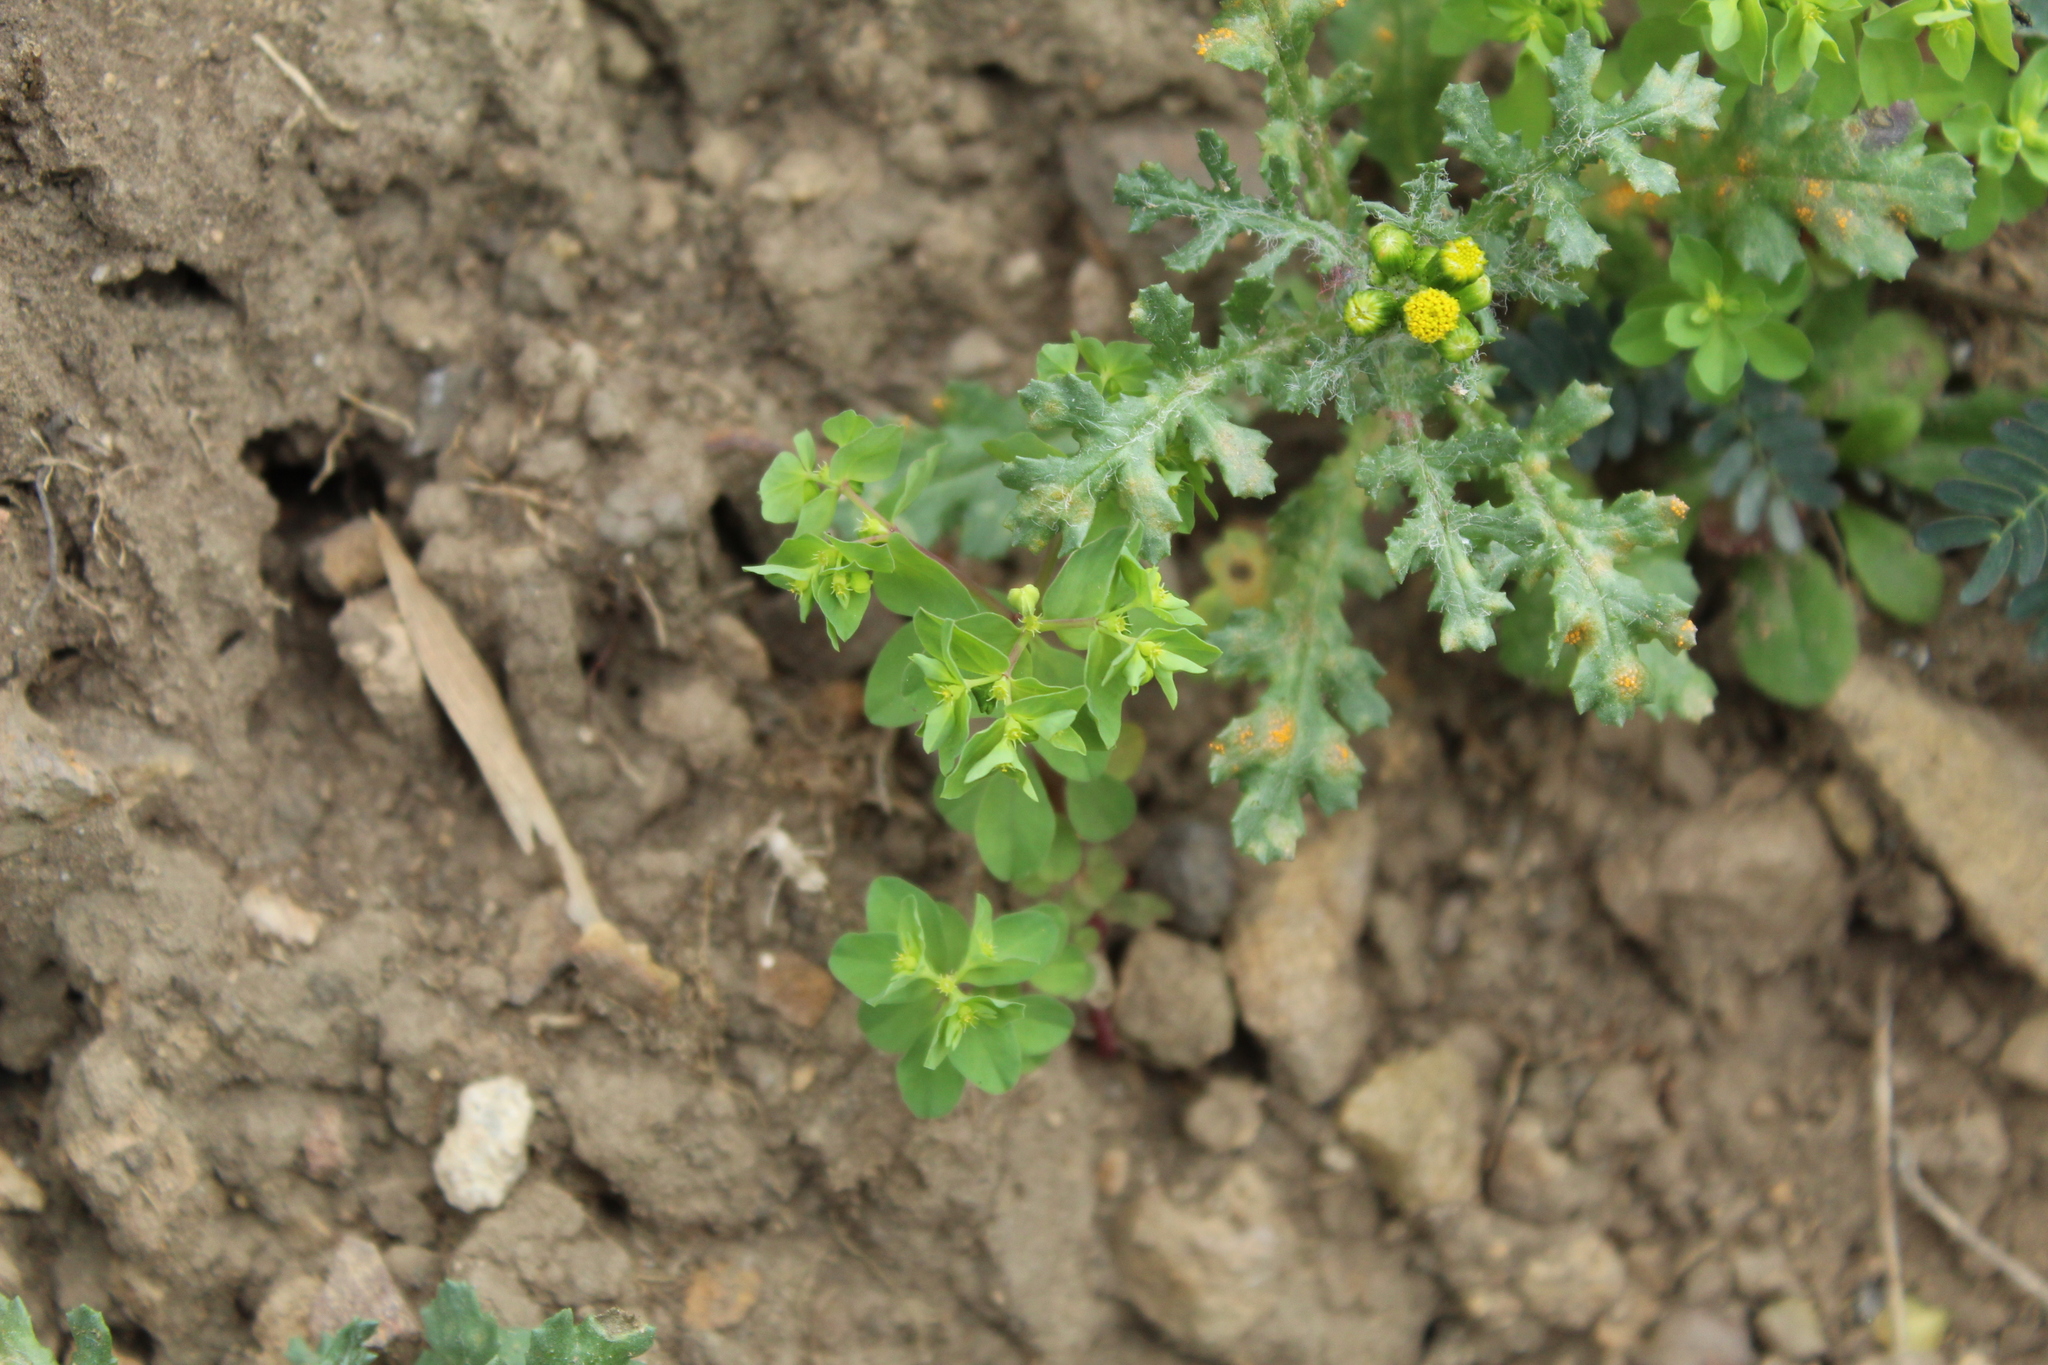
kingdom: Plantae
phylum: Tracheophyta
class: Magnoliopsida
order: Malpighiales
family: Euphorbiaceae
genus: Euphorbia
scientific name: Euphorbia peplus
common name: Petty spurge
